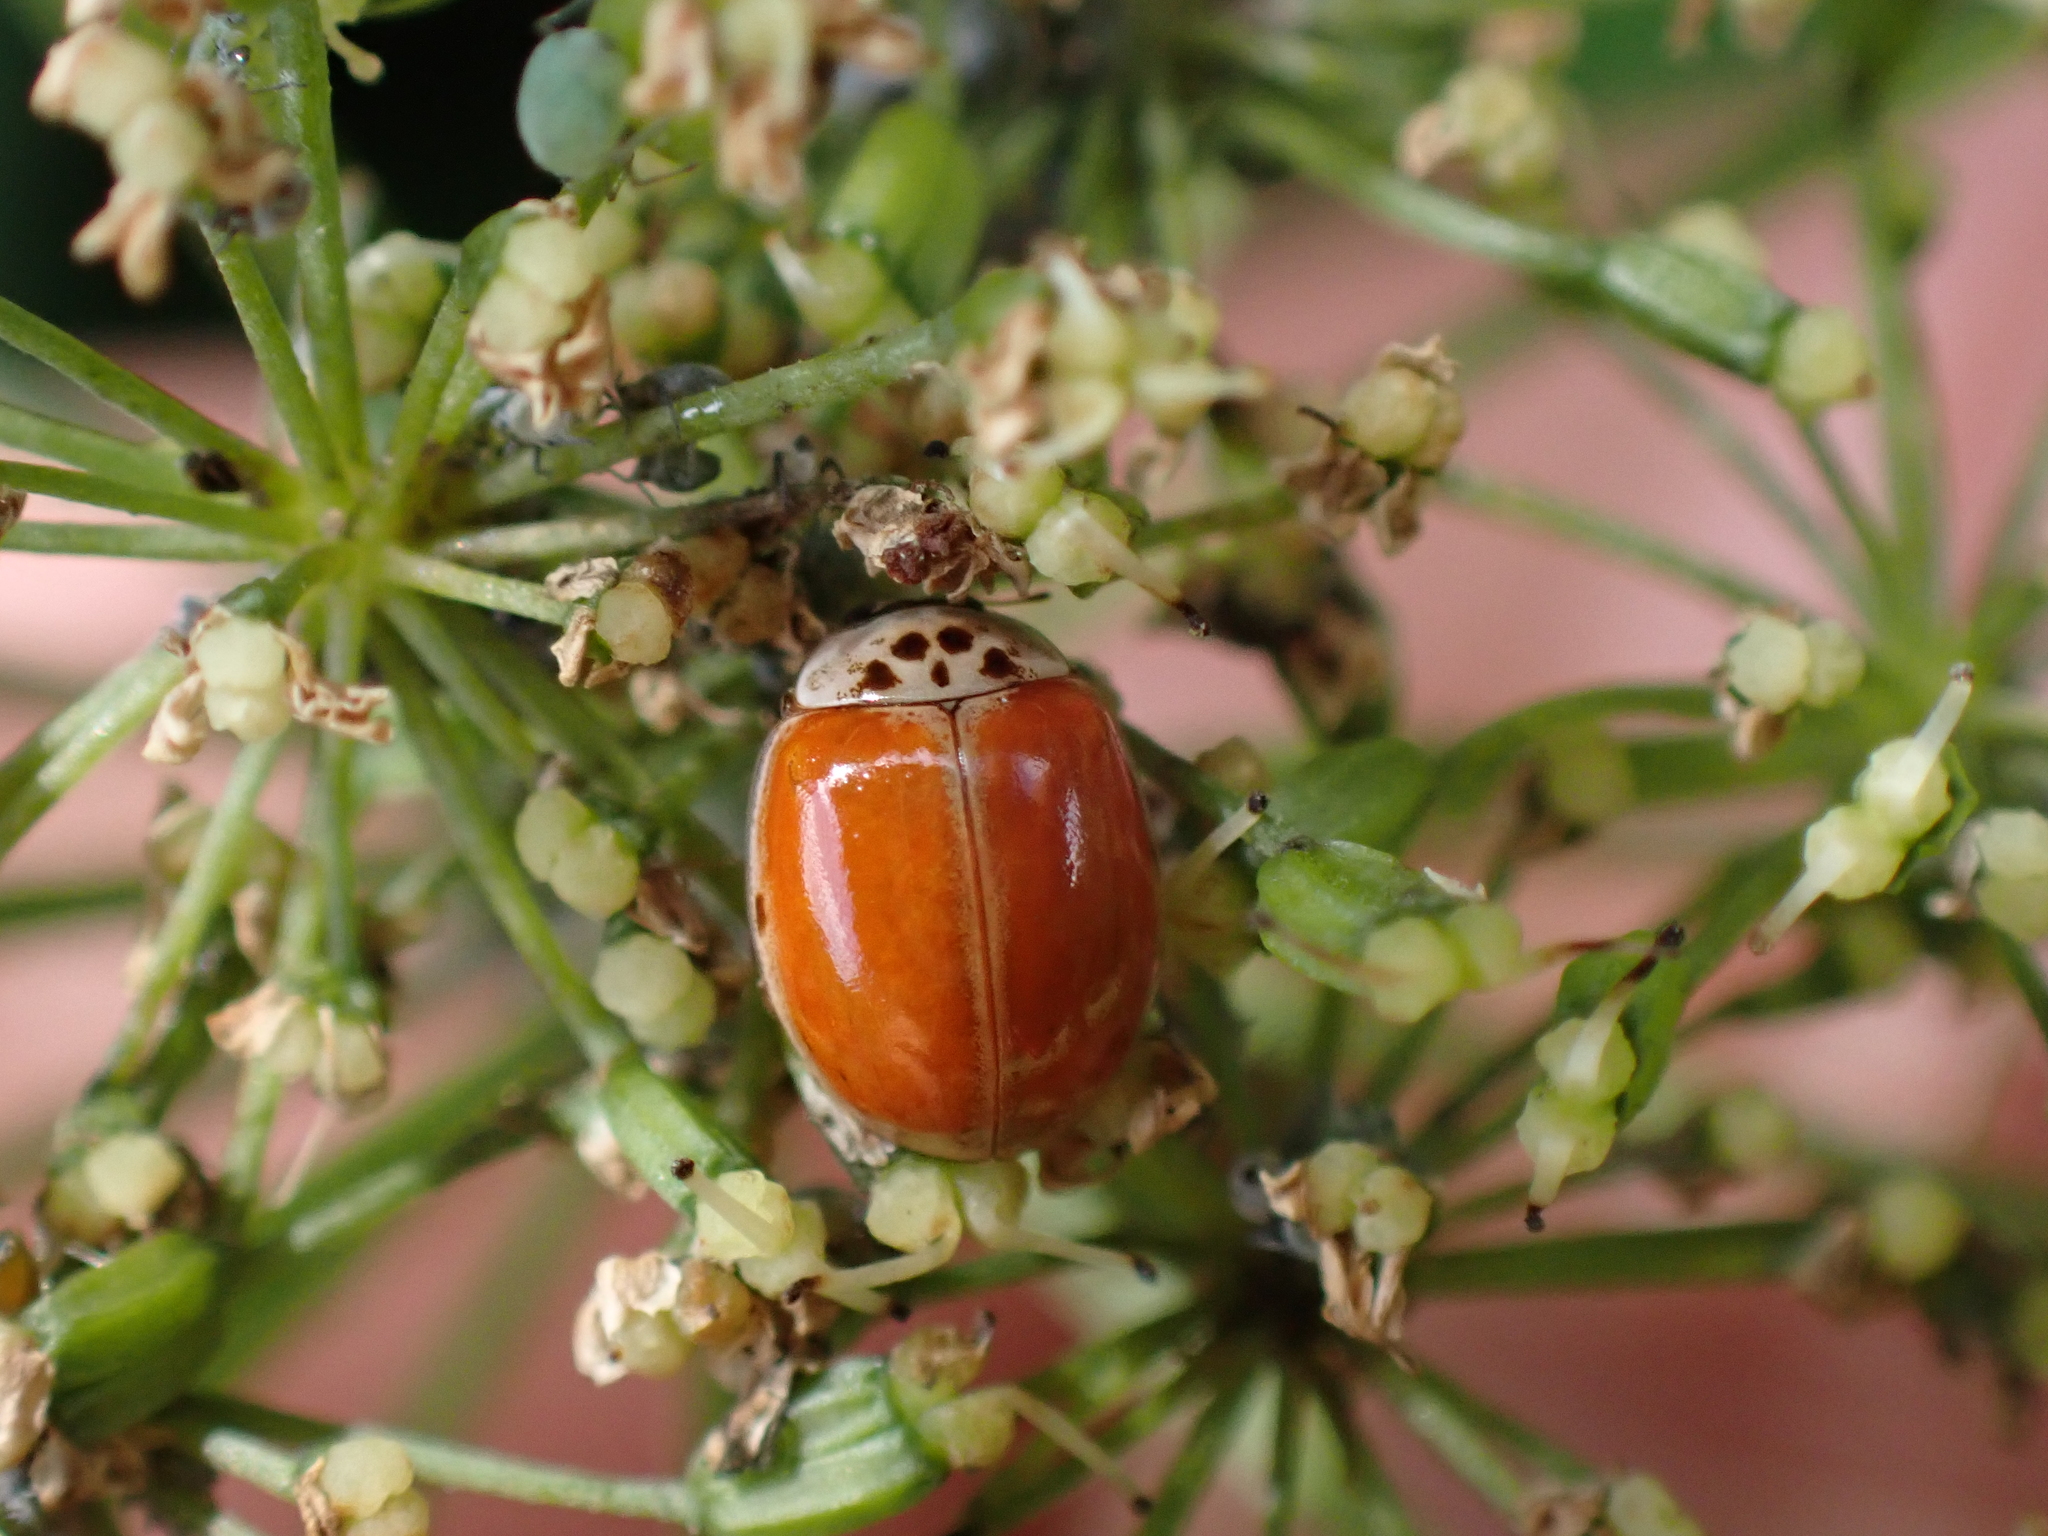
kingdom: Animalia
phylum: Arthropoda
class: Insecta
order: Coleoptera
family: Coccinellidae
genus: Adalia
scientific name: Adalia decempunctata
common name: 10-spot ladybird
